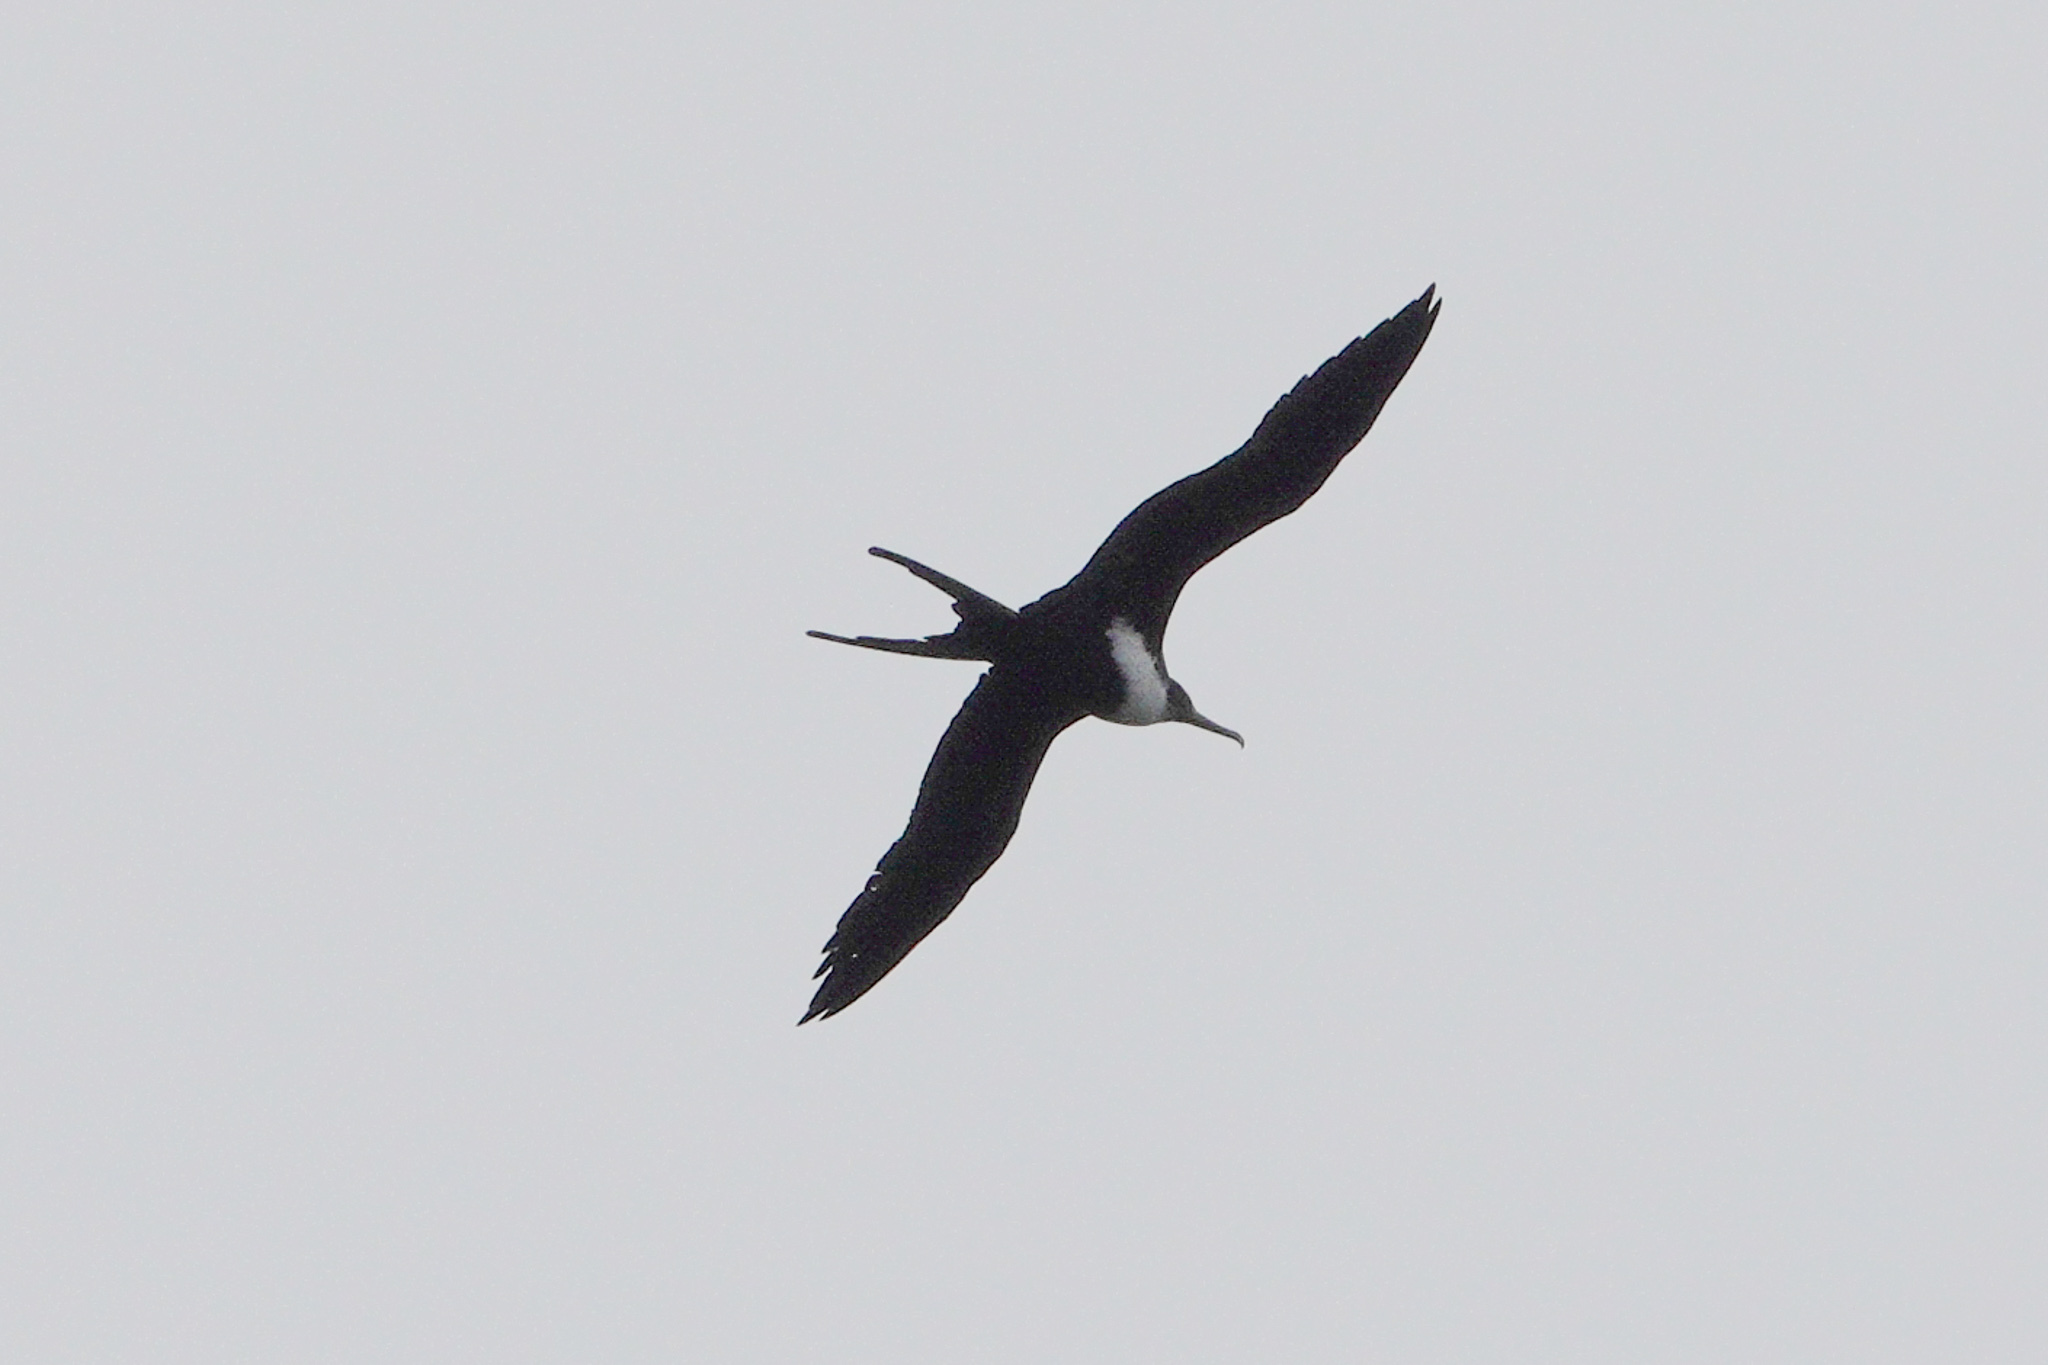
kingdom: Animalia
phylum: Chordata
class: Aves
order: Suliformes
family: Fregatidae
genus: Fregata
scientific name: Fregata minor
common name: Great frigatebird
